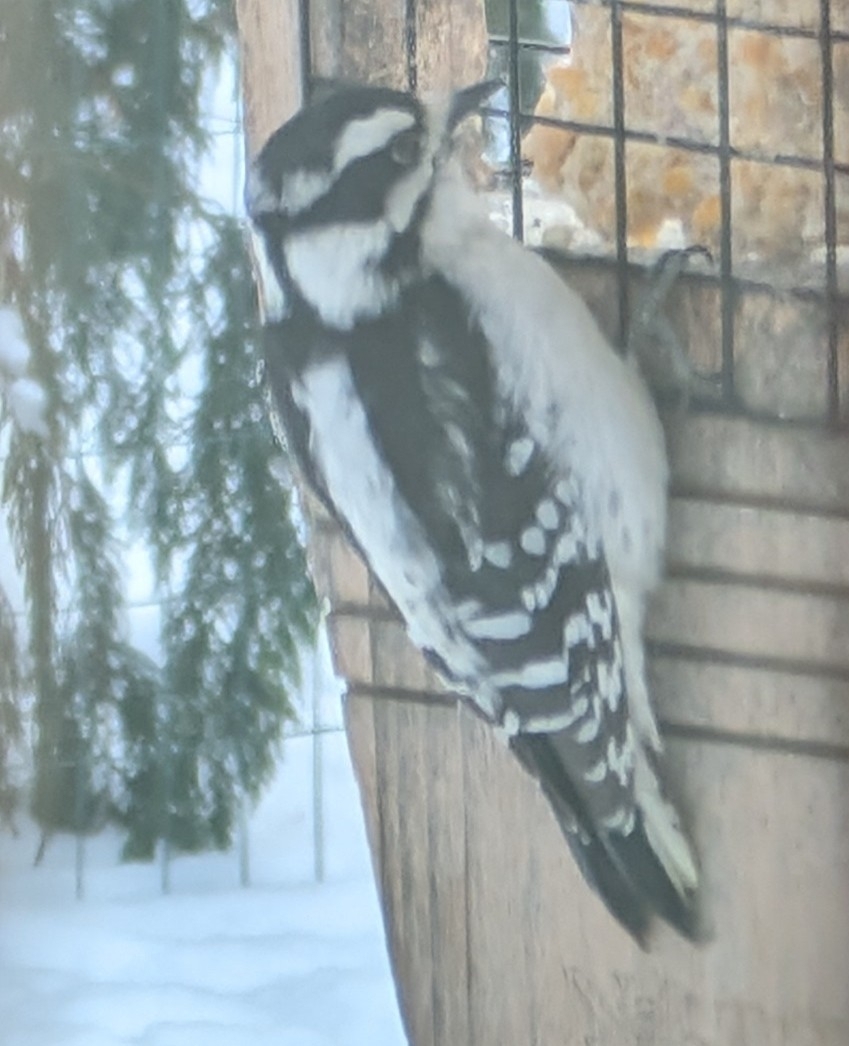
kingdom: Animalia
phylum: Chordata
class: Aves
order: Piciformes
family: Picidae
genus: Dryobates
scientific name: Dryobates pubescens
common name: Downy woodpecker
